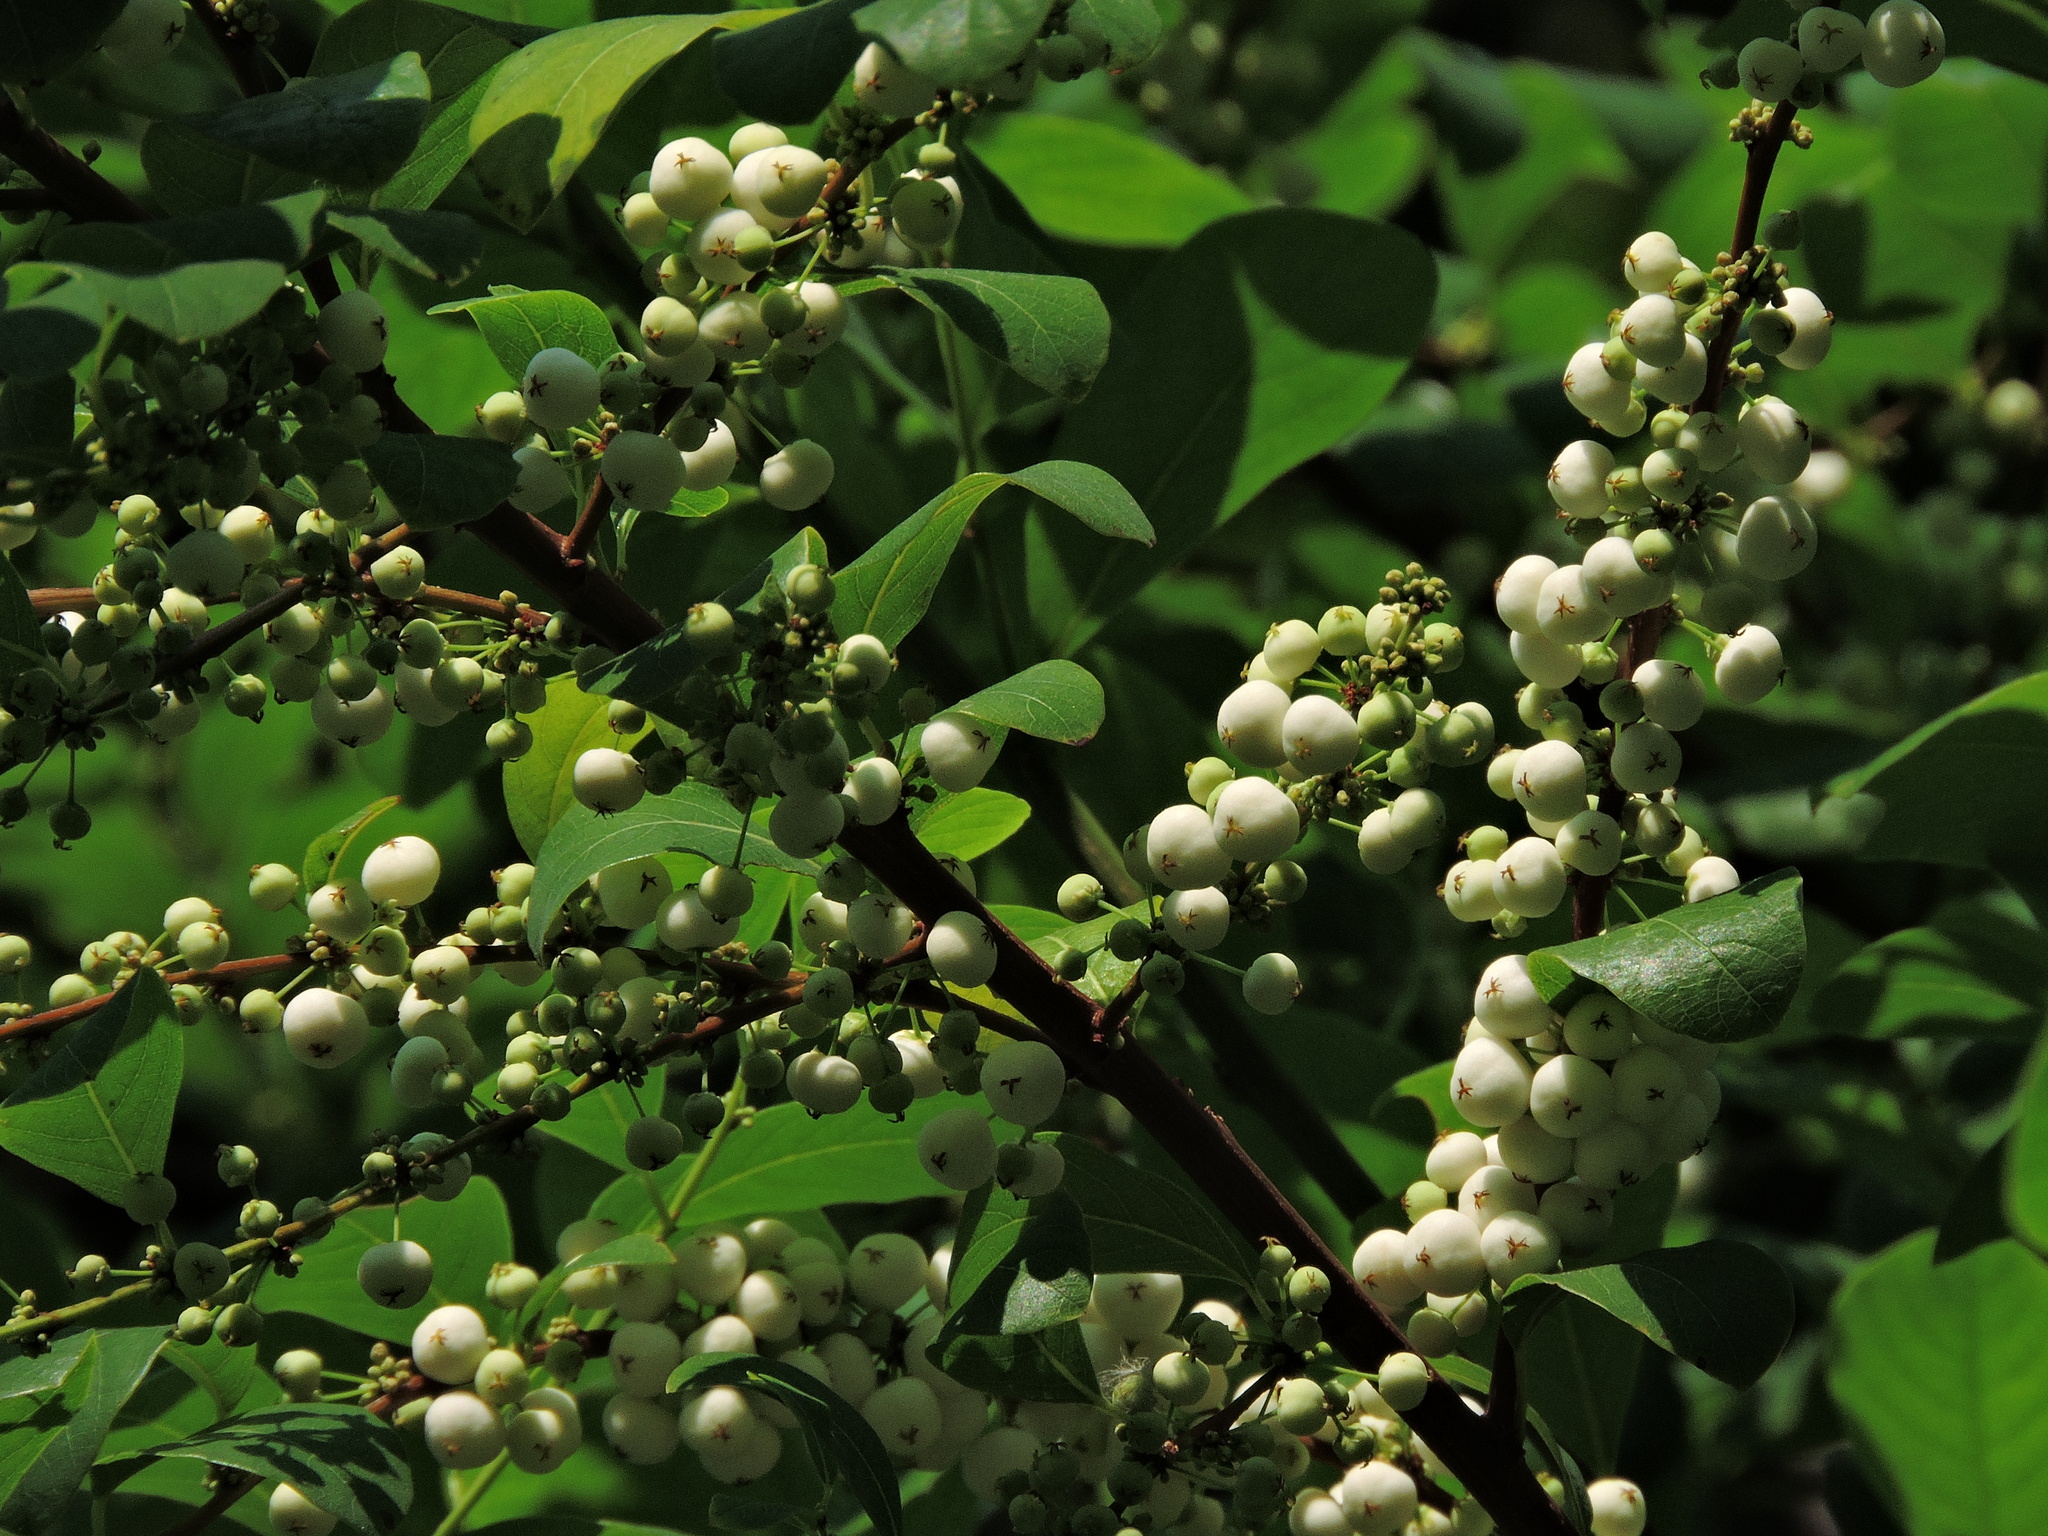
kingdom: Plantae
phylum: Tracheophyta
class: Magnoliopsida
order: Malpighiales
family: Phyllanthaceae
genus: Flueggea
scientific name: Flueggea virosa
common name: Common bushweed
